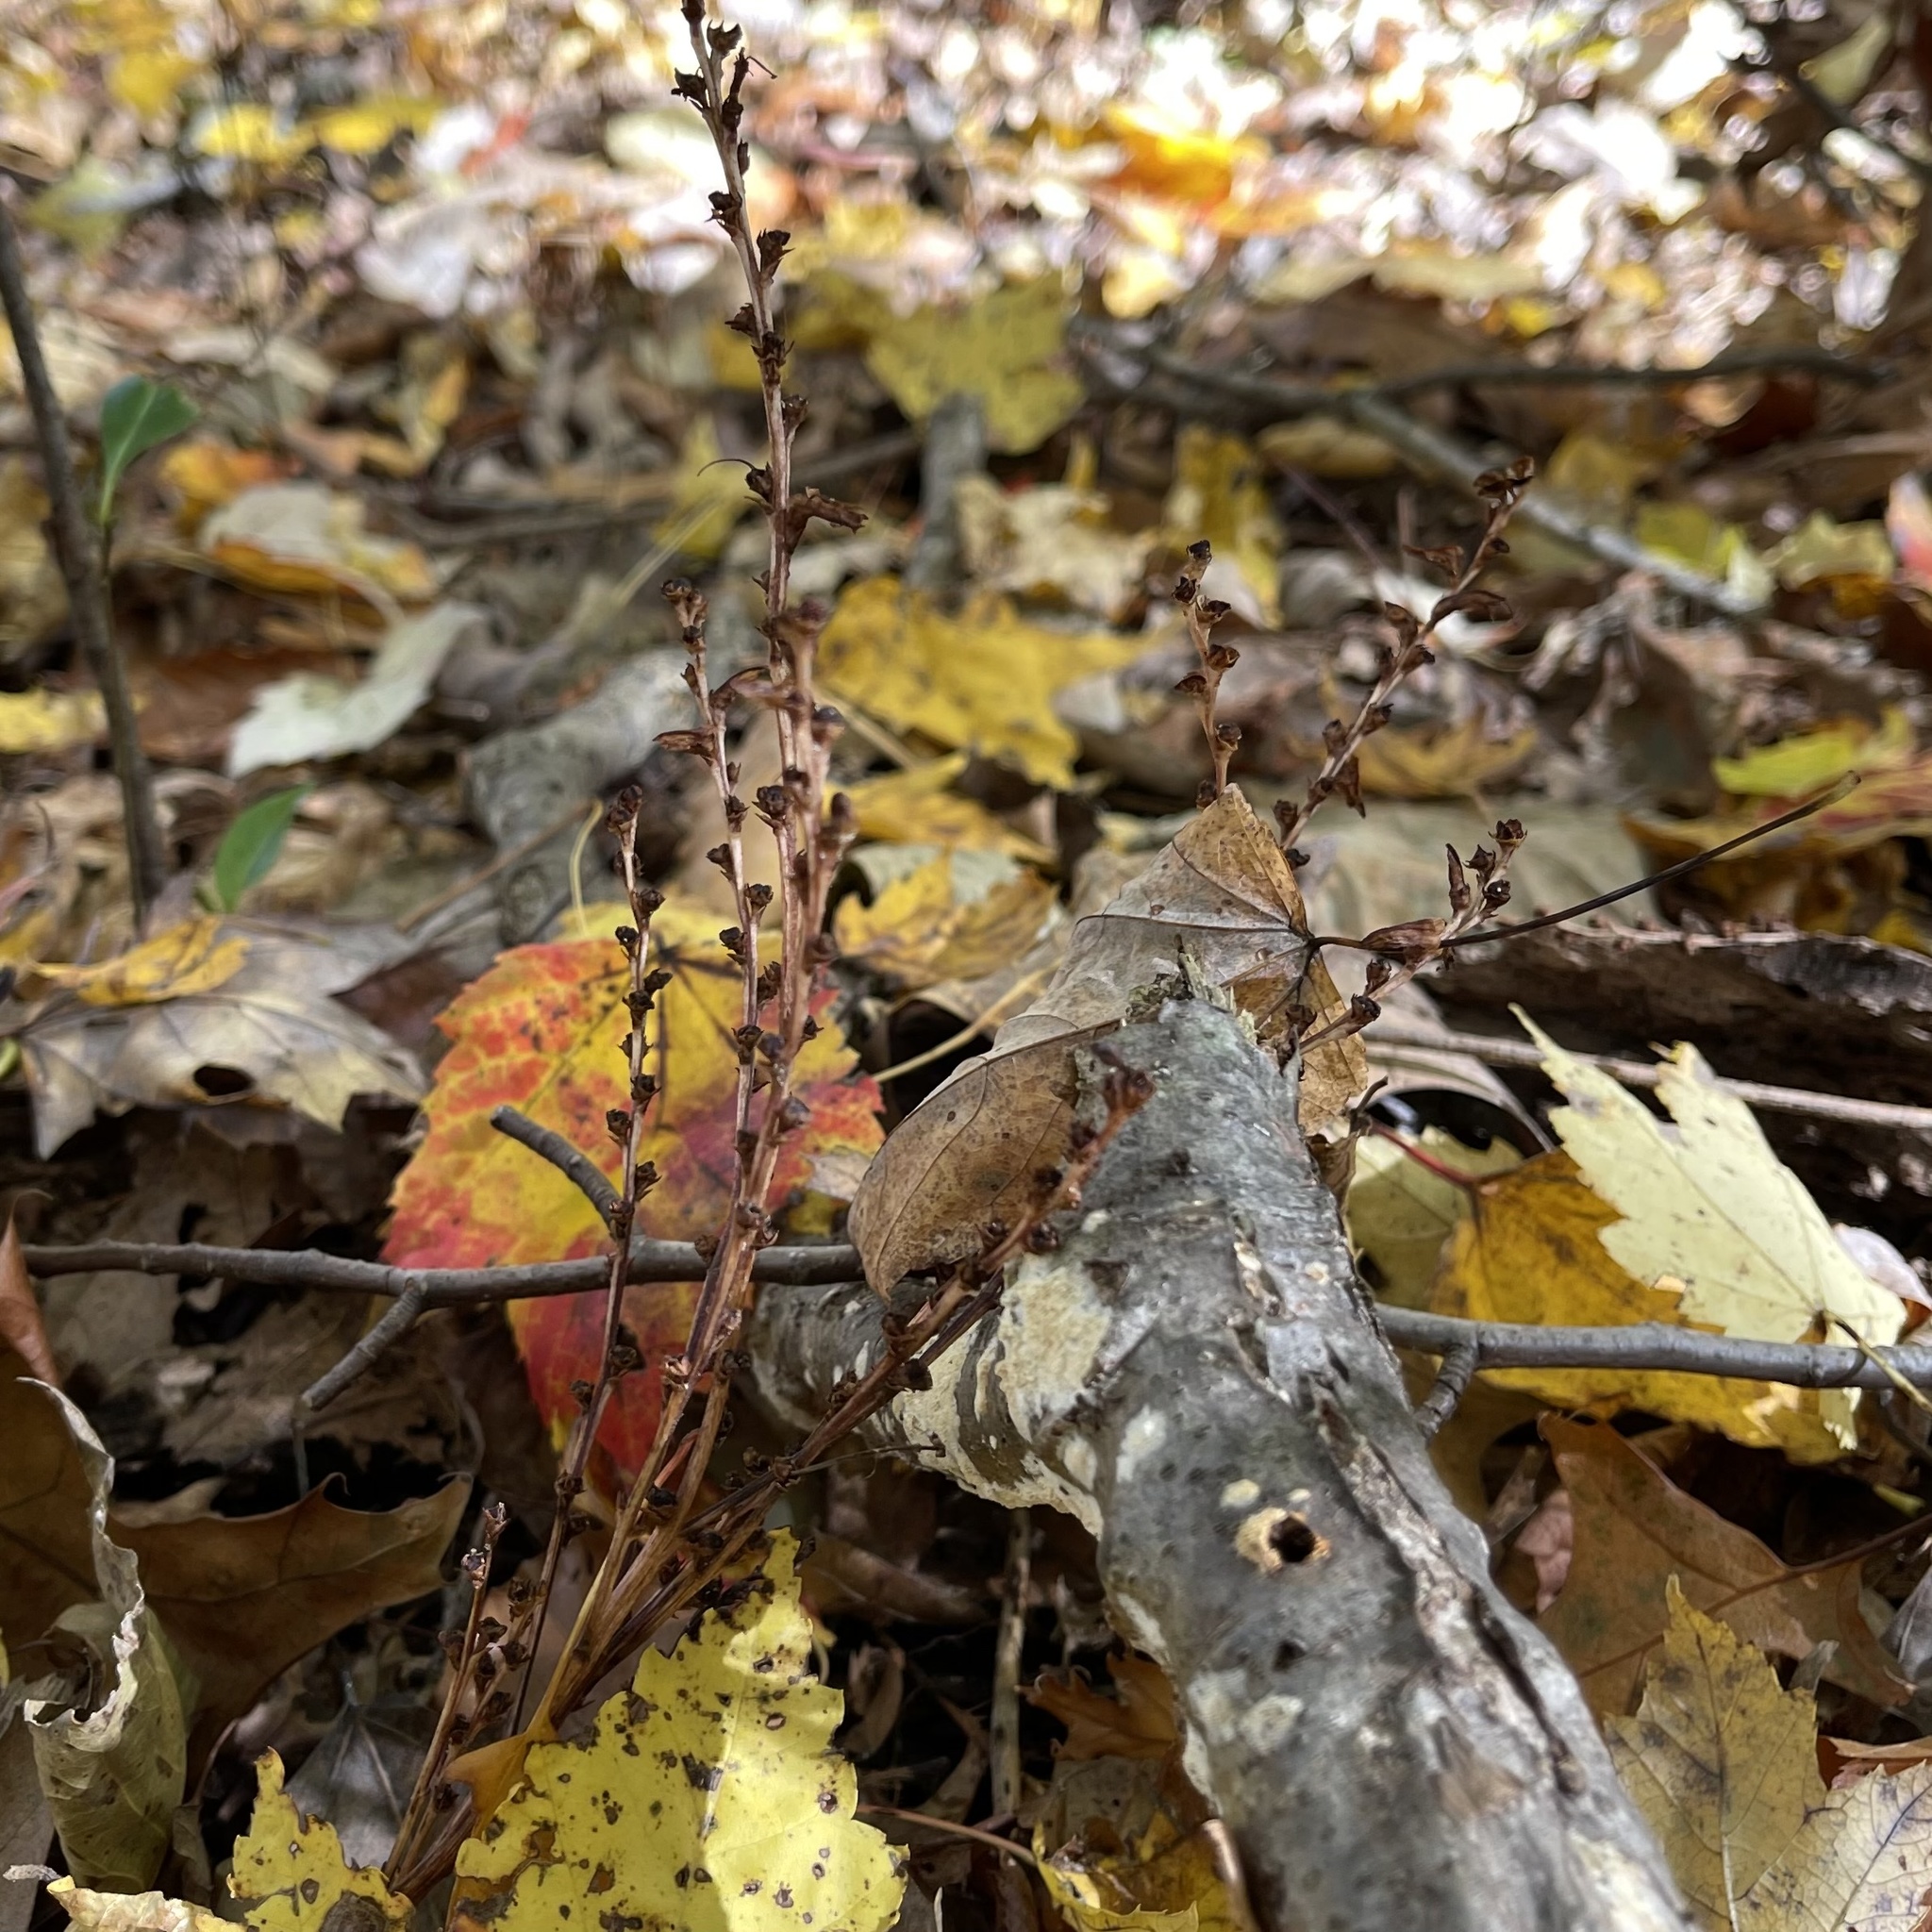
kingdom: Plantae
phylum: Tracheophyta
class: Magnoliopsida
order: Lamiales
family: Orobanchaceae
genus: Epifagus
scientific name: Epifagus virginiana
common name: Beechdrops
